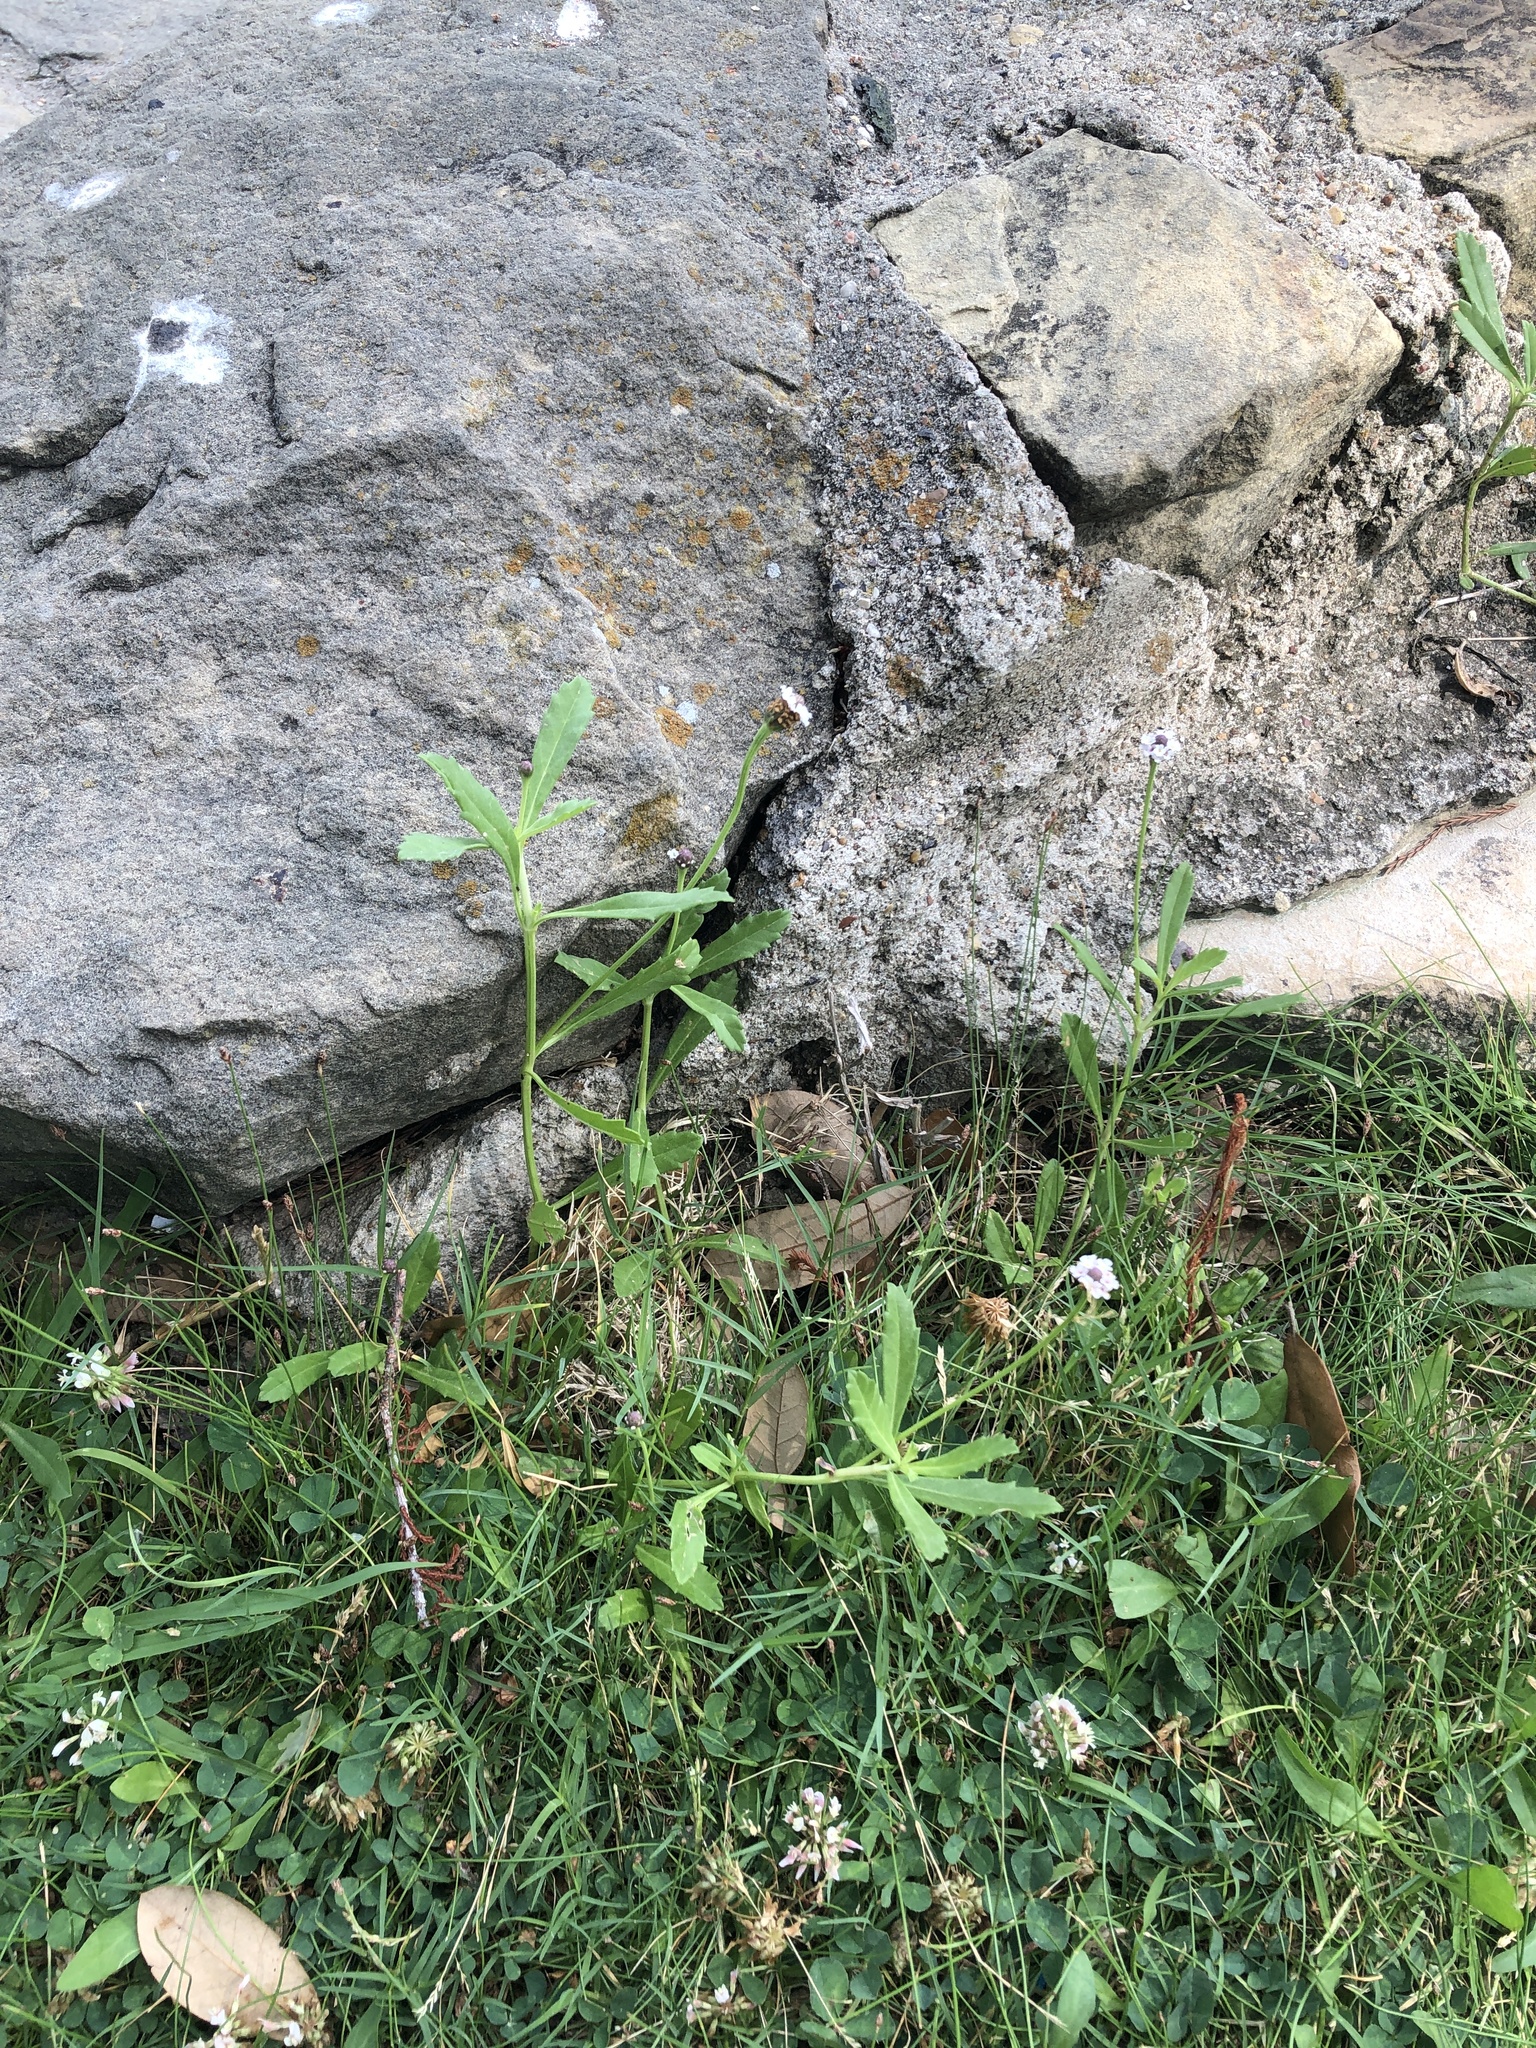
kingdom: Plantae
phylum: Tracheophyta
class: Magnoliopsida
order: Lamiales
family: Verbenaceae
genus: Phyla
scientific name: Phyla nodiflora
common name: Frogfruit
